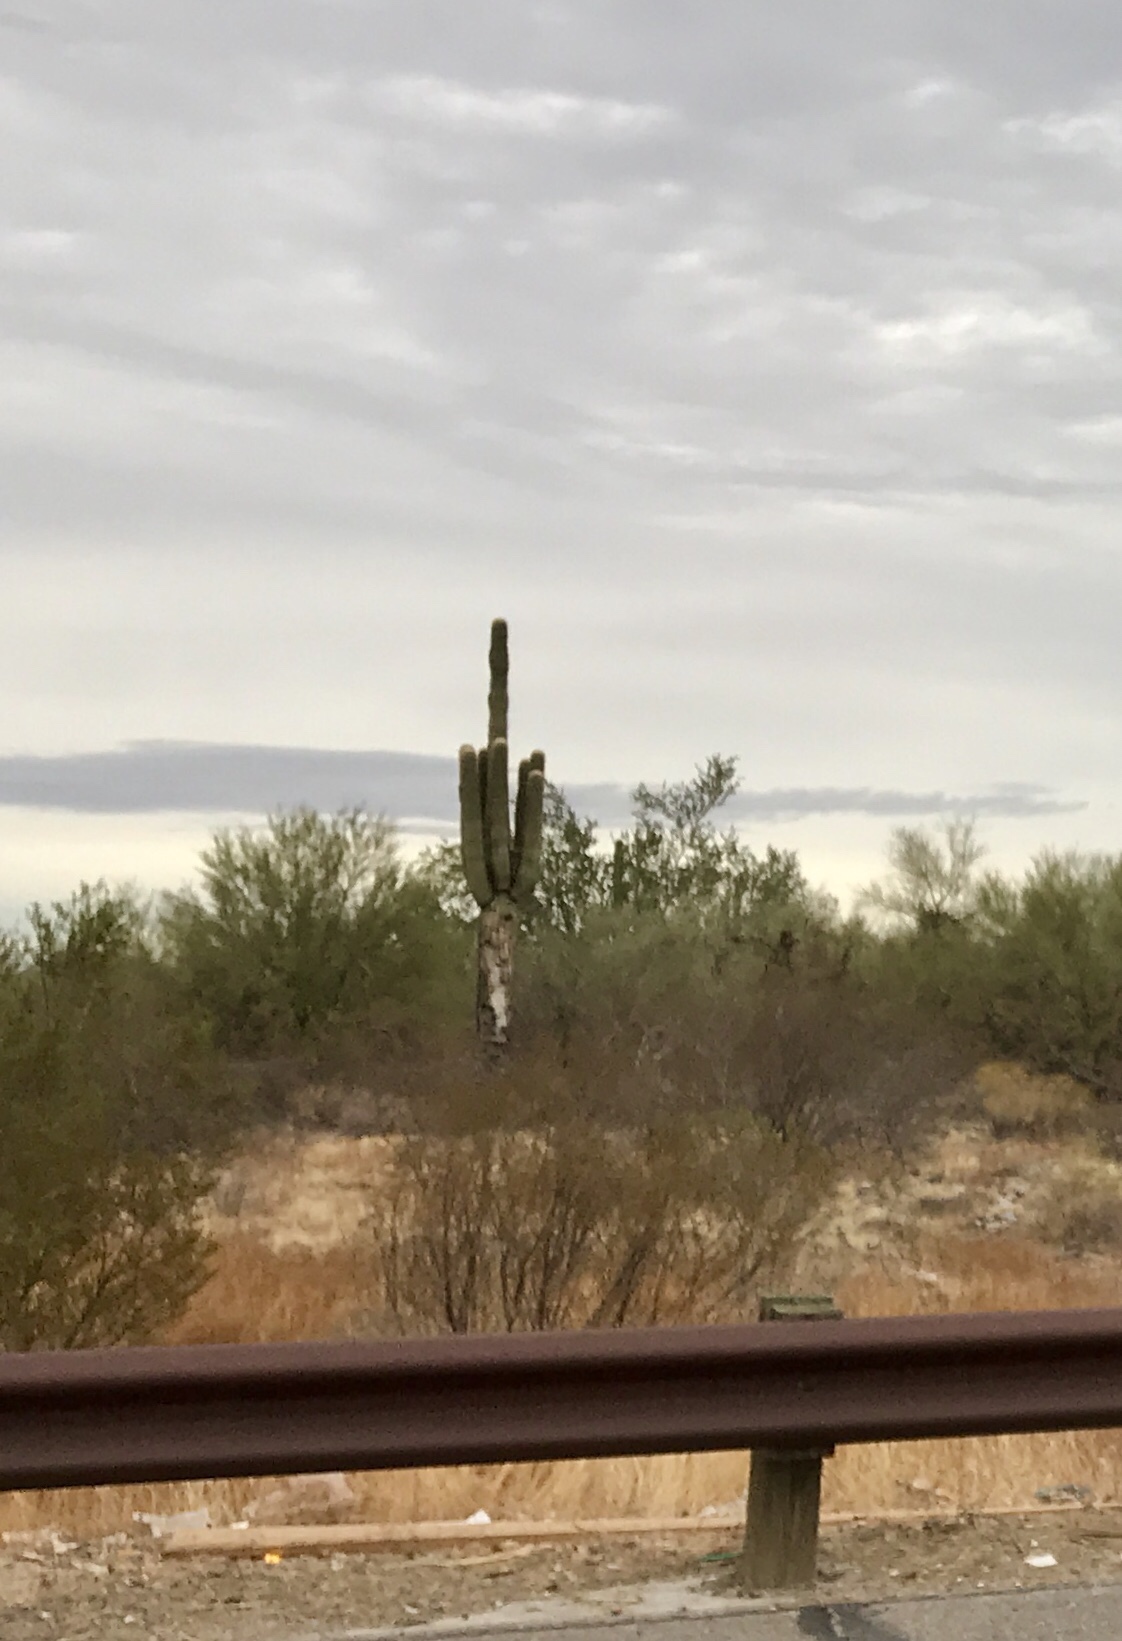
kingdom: Plantae
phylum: Tracheophyta
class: Magnoliopsida
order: Caryophyllales
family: Cactaceae
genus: Carnegiea
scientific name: Carnegiea gigantea
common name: Saguaro
